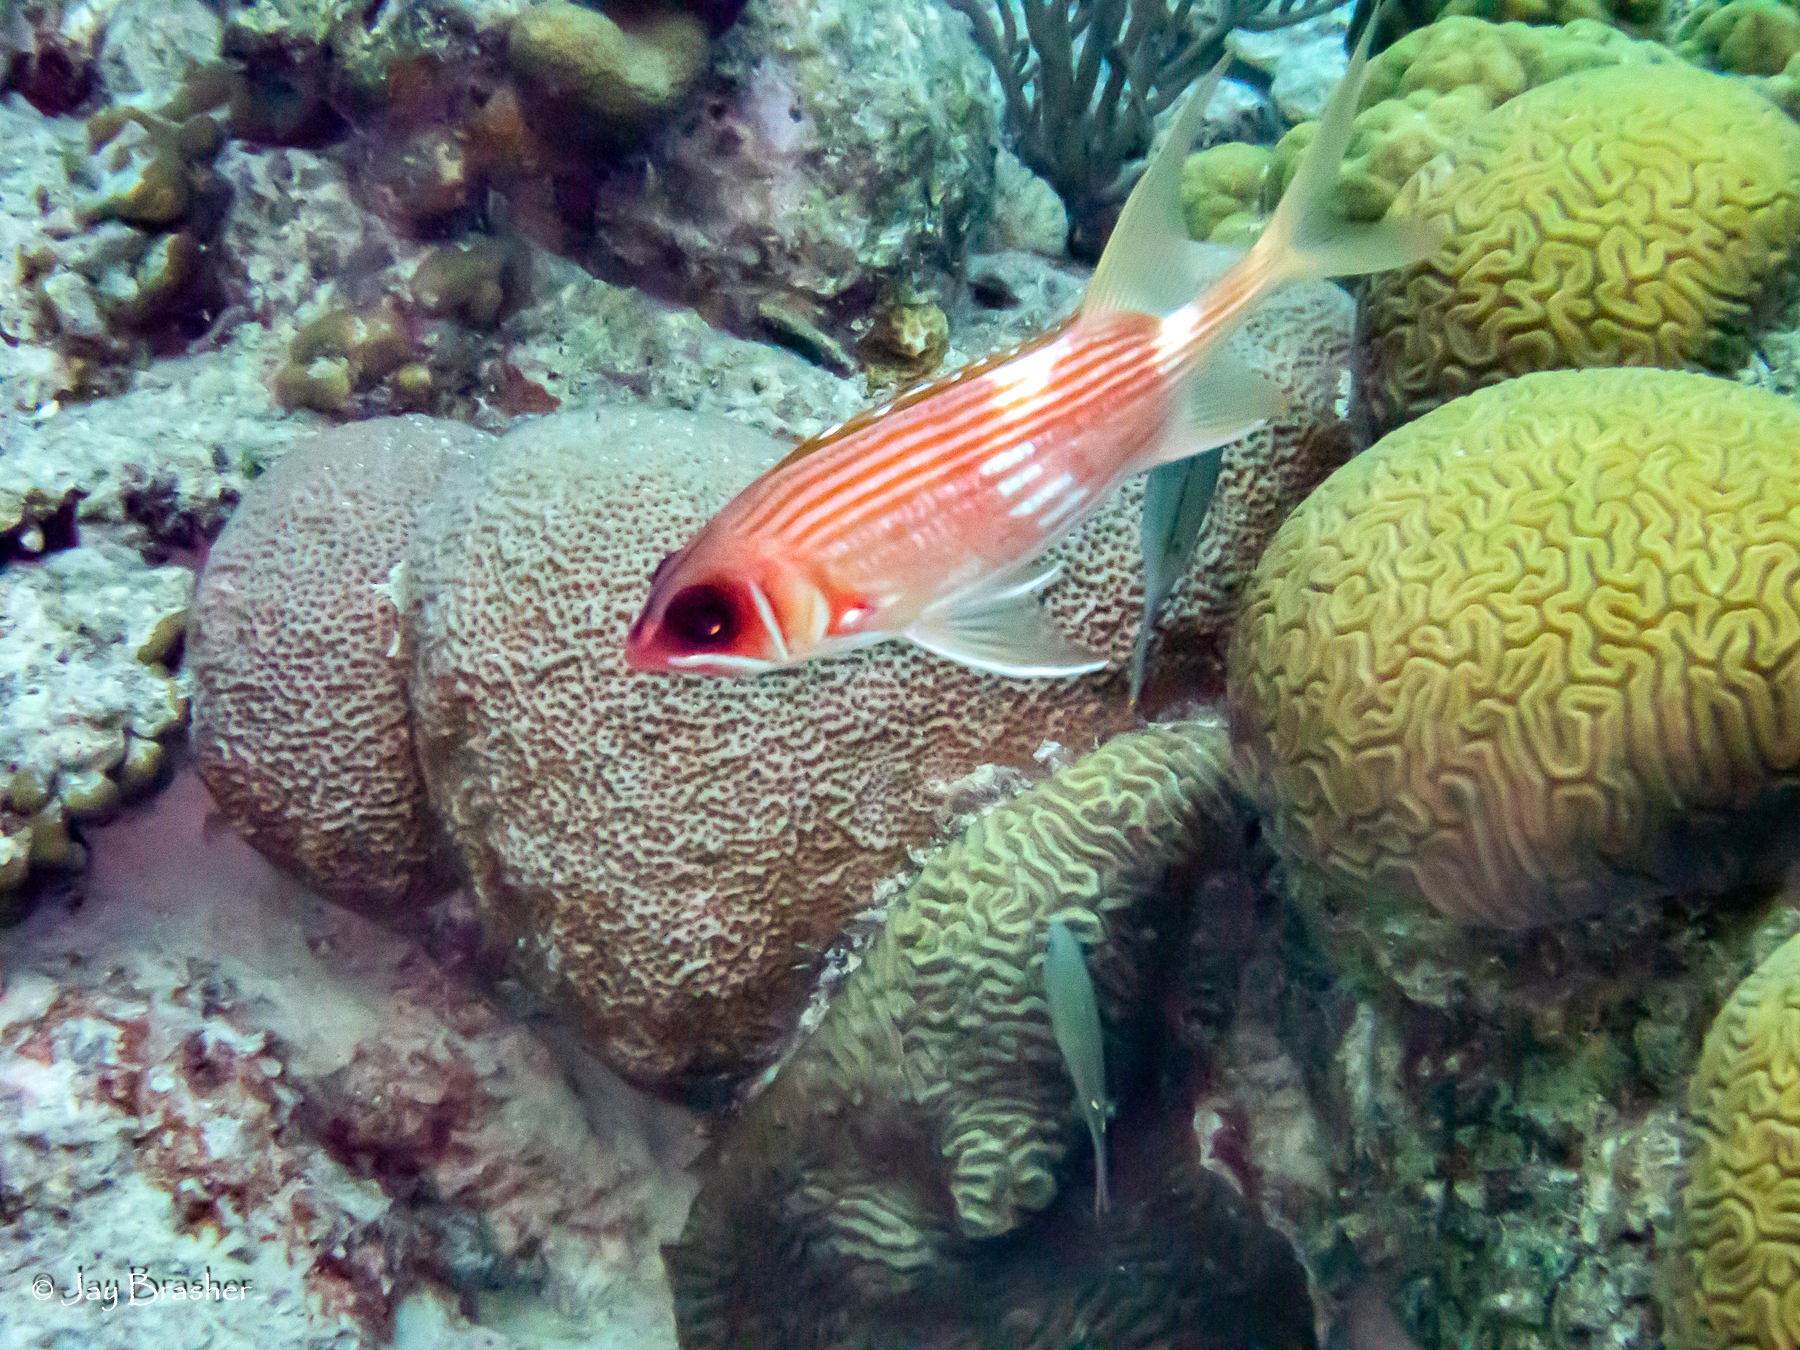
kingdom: Animalia
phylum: Chordata
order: Beryciformes
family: Holocentridae
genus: Holocentrus
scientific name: Holocentrus rufus
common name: Longspine squirrelfish
